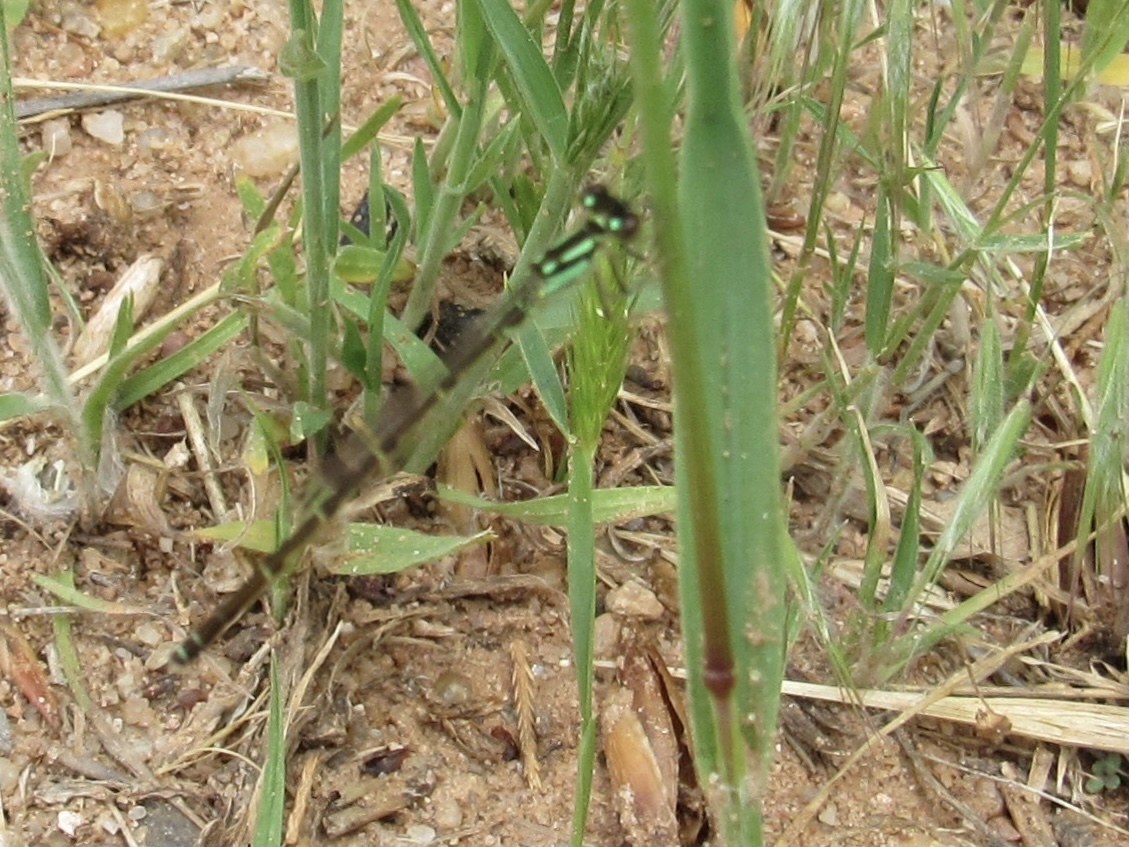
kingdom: Animalia
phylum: Arthropoda
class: Insecta
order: Odonata
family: Coenagrionidae
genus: Ischnura
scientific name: Ischnura posita
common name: Fragile forktail
